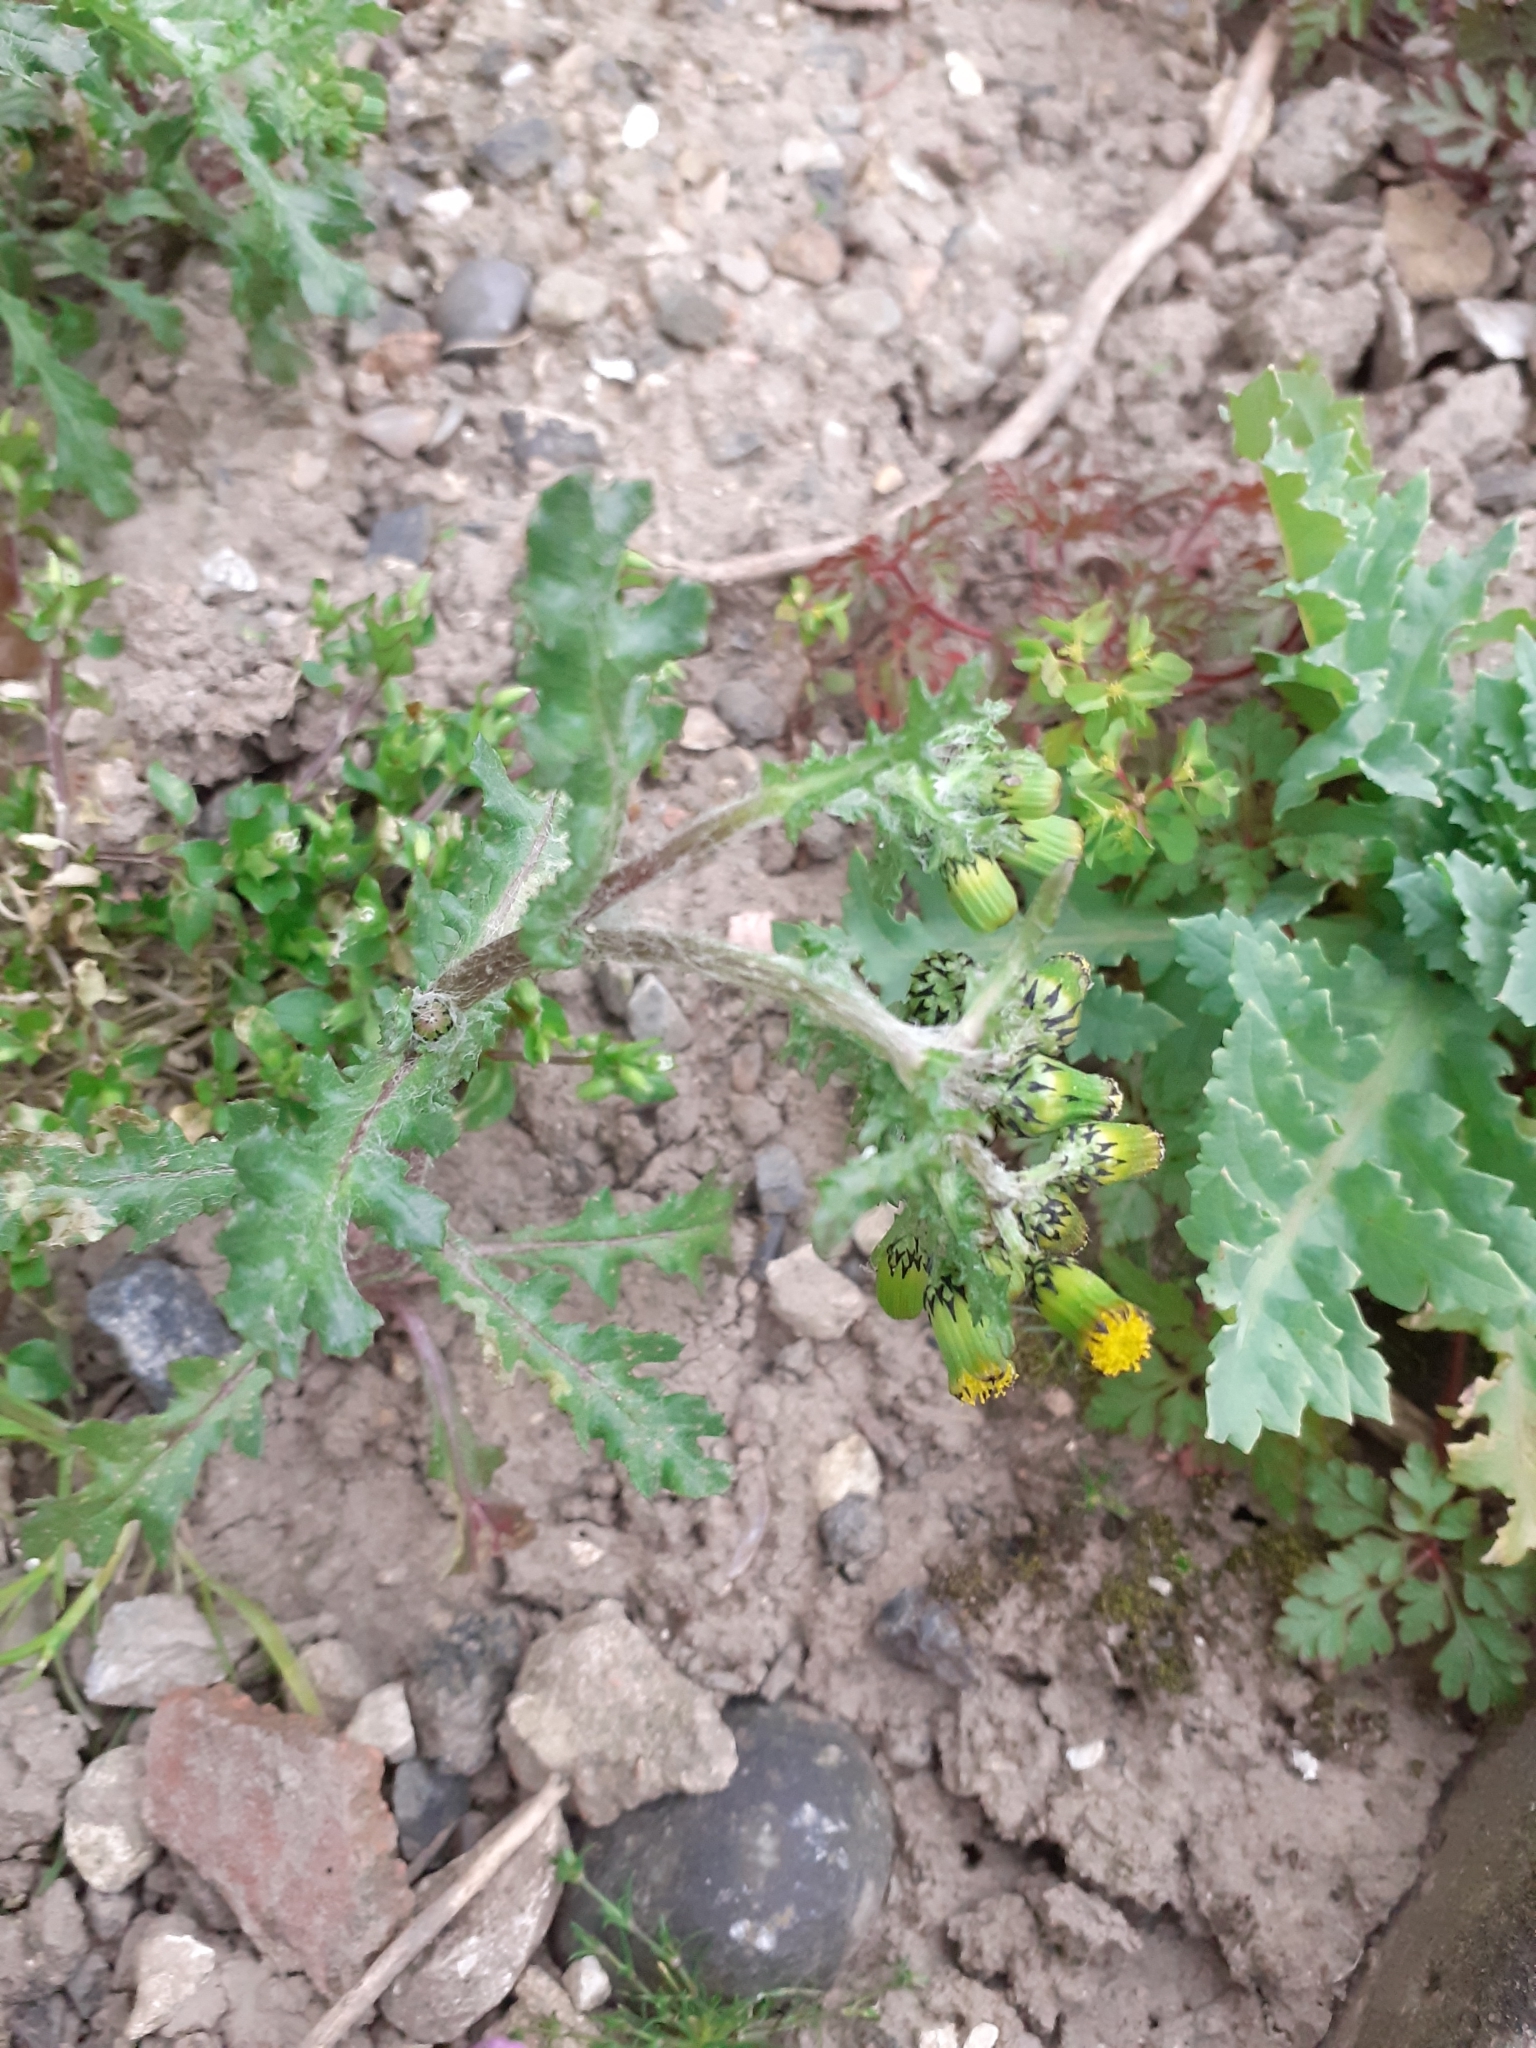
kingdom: Plantae
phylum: Tracheophyta
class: Magnoliopsida
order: Asterales
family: Asteraceae
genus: Senecio
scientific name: Senecio vulgaris
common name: Old-man-in-the-spring
